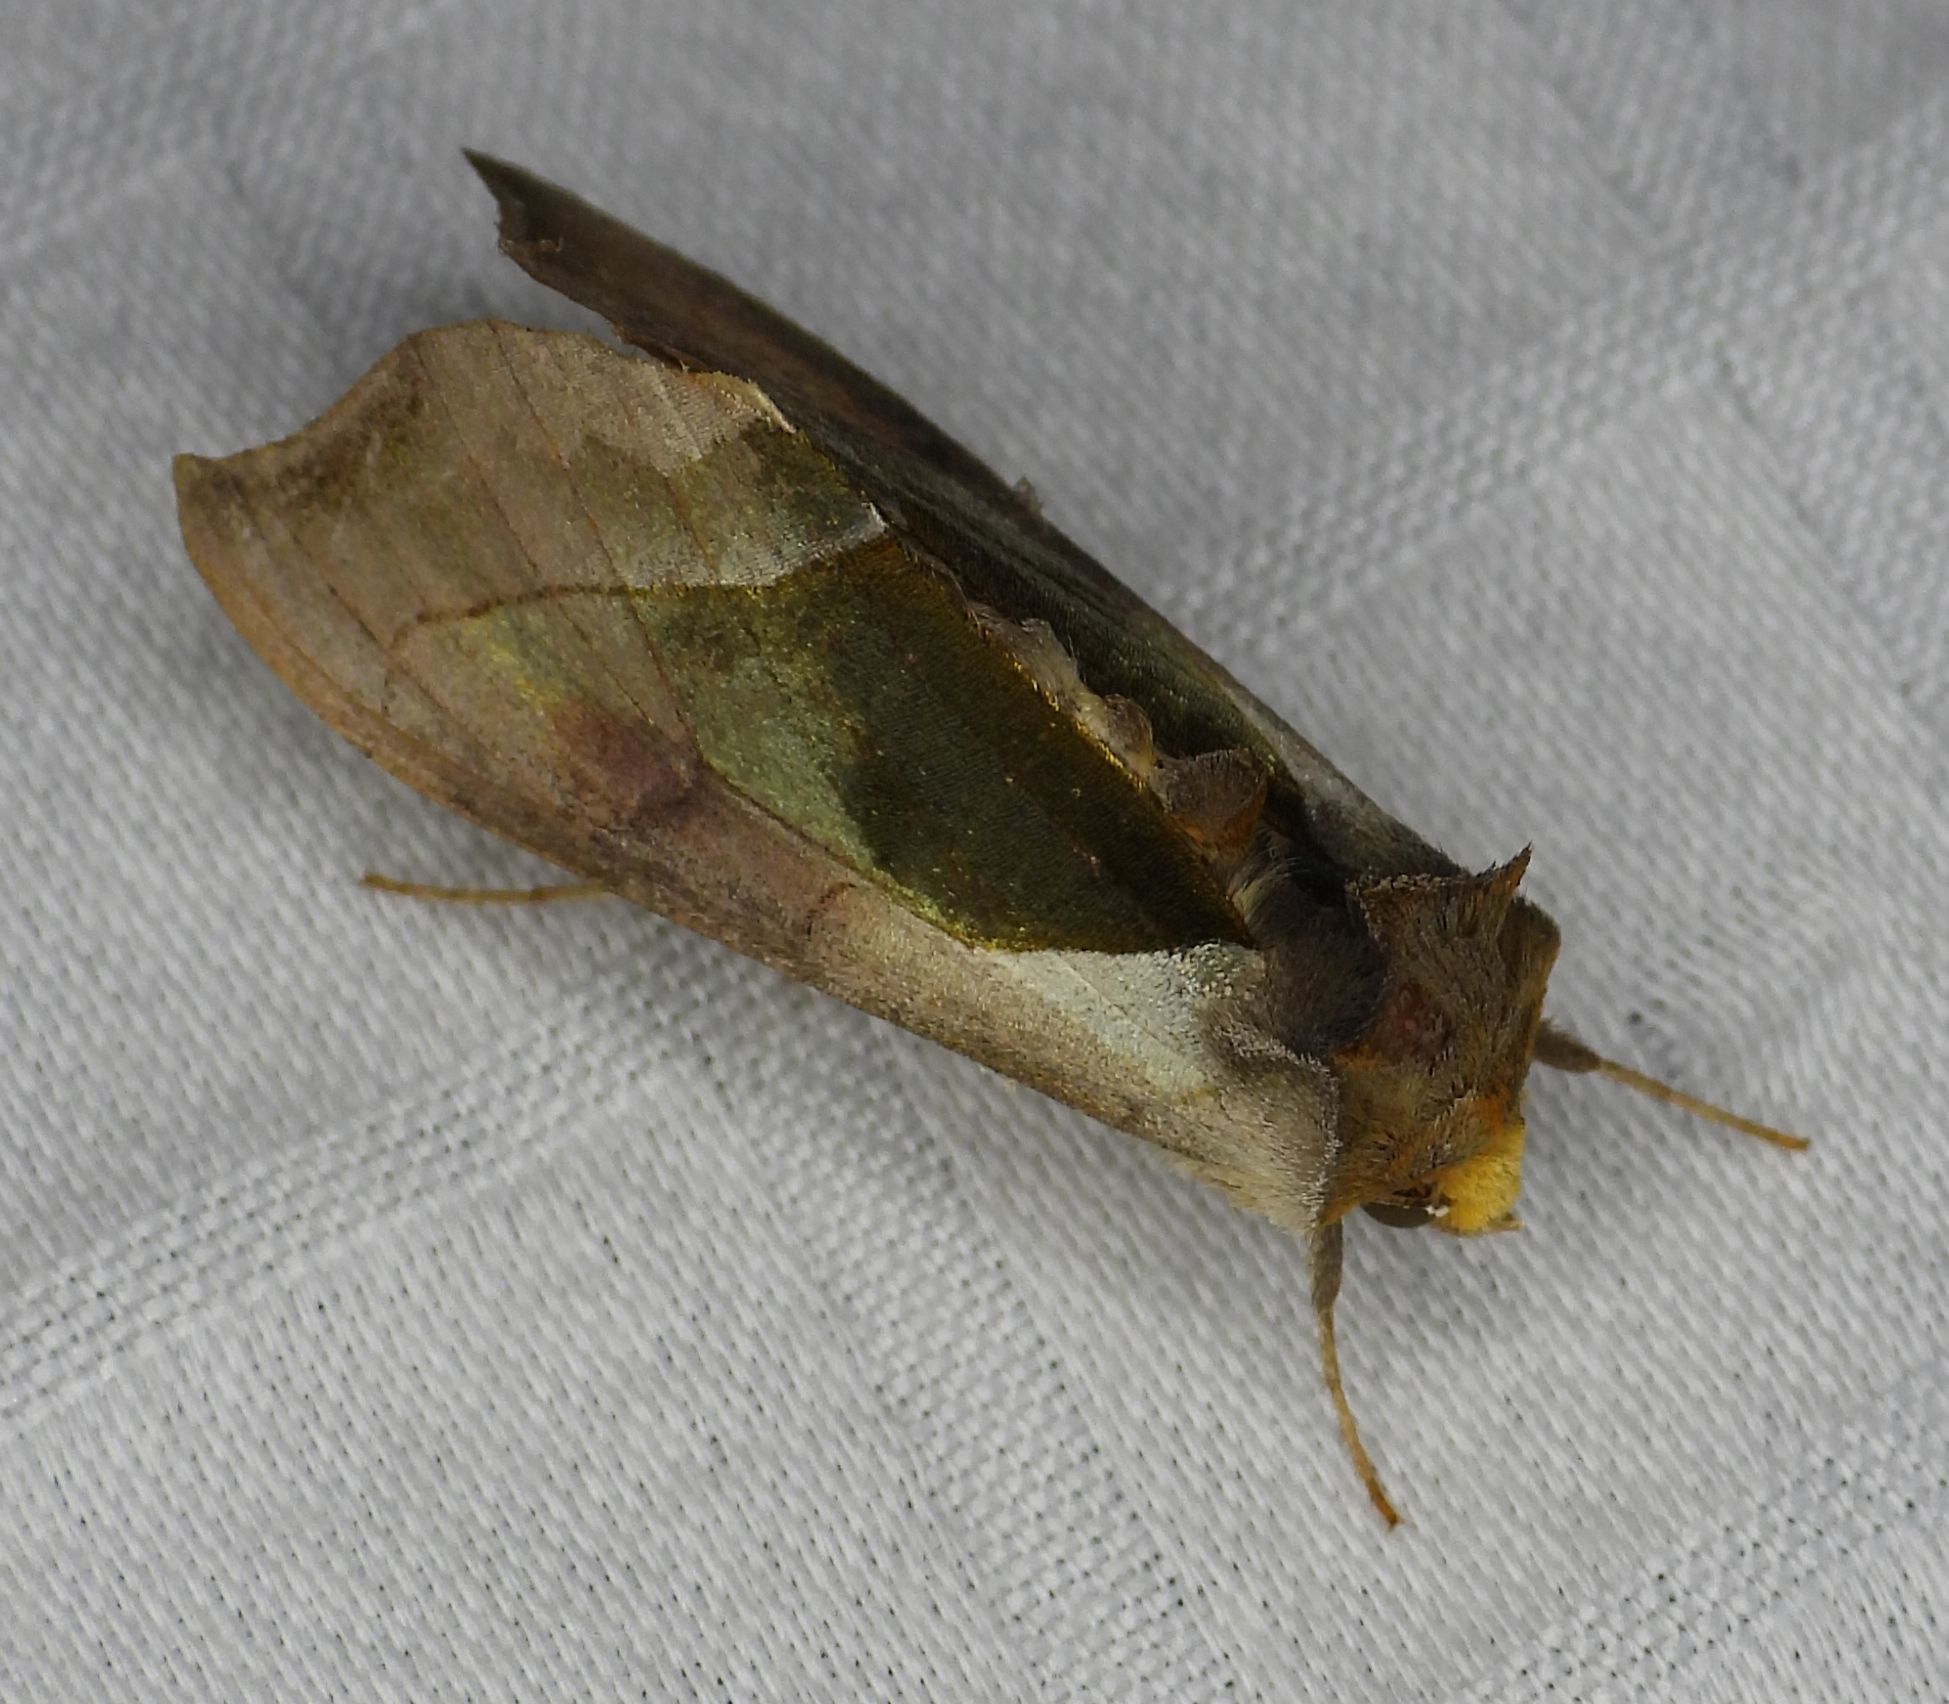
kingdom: Animalia
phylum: Arthropoda
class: Insecta
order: Lepidoptera
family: Noctuidae
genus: Diachrysia
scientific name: Diachrysia balluca
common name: Green-patched looper moth
